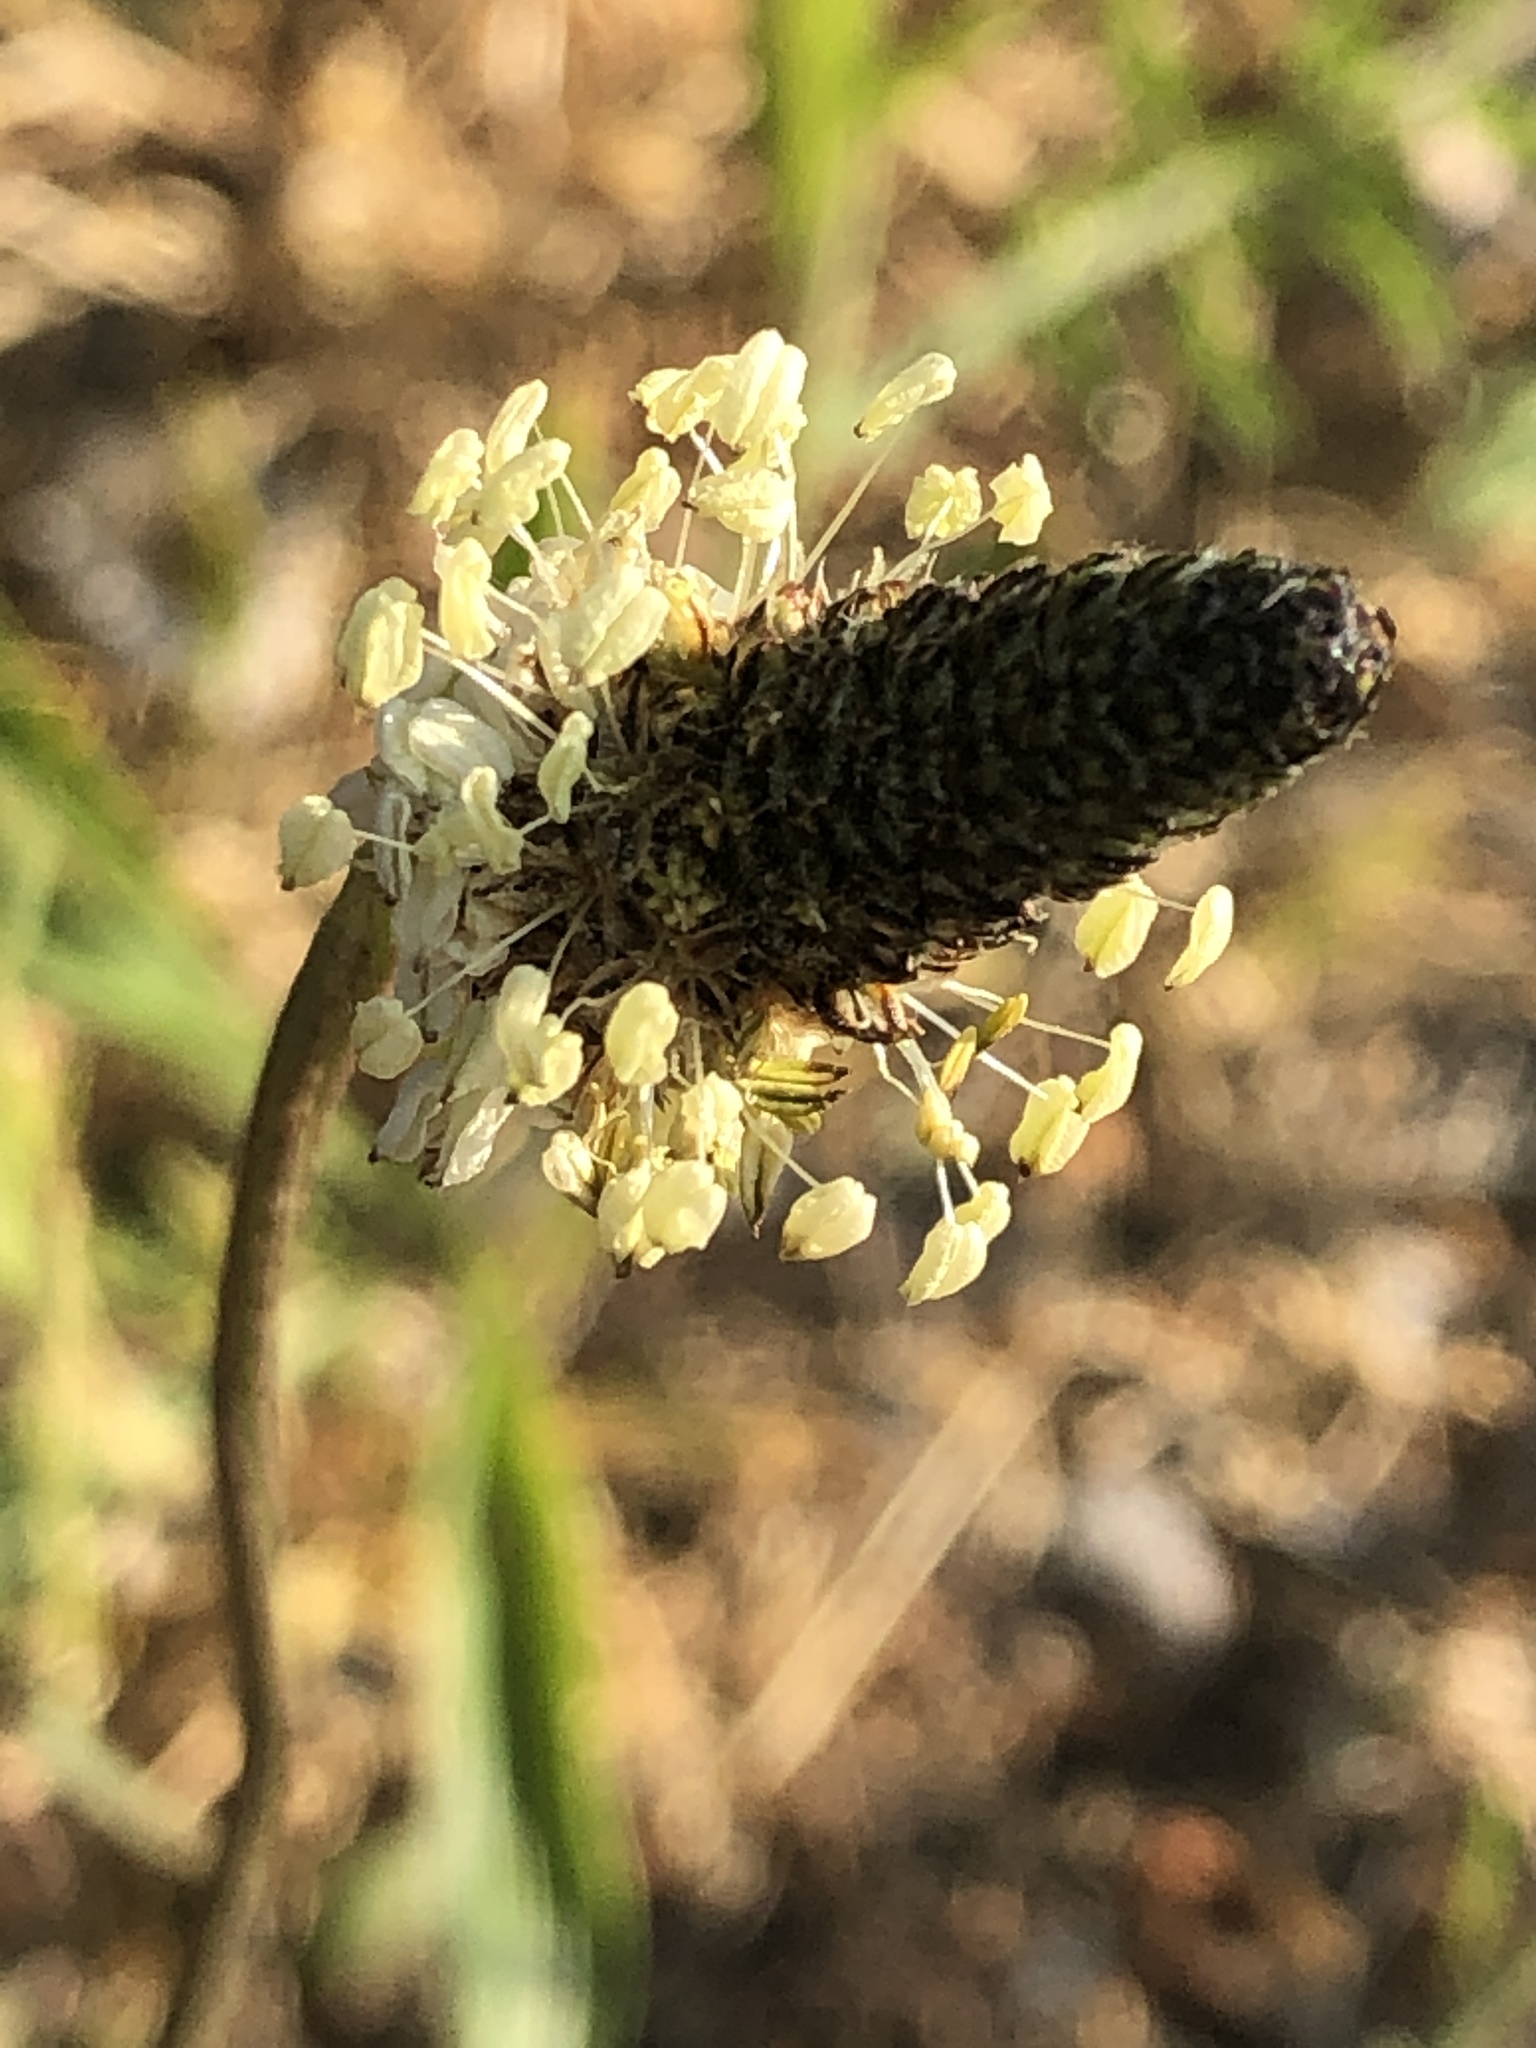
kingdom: Plantae
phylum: Tracheophyta
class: Magnoliopsida
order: Lamiales
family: Plantaginaceae
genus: Plantago
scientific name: Plantago lanceolata
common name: Ribwort plantain
